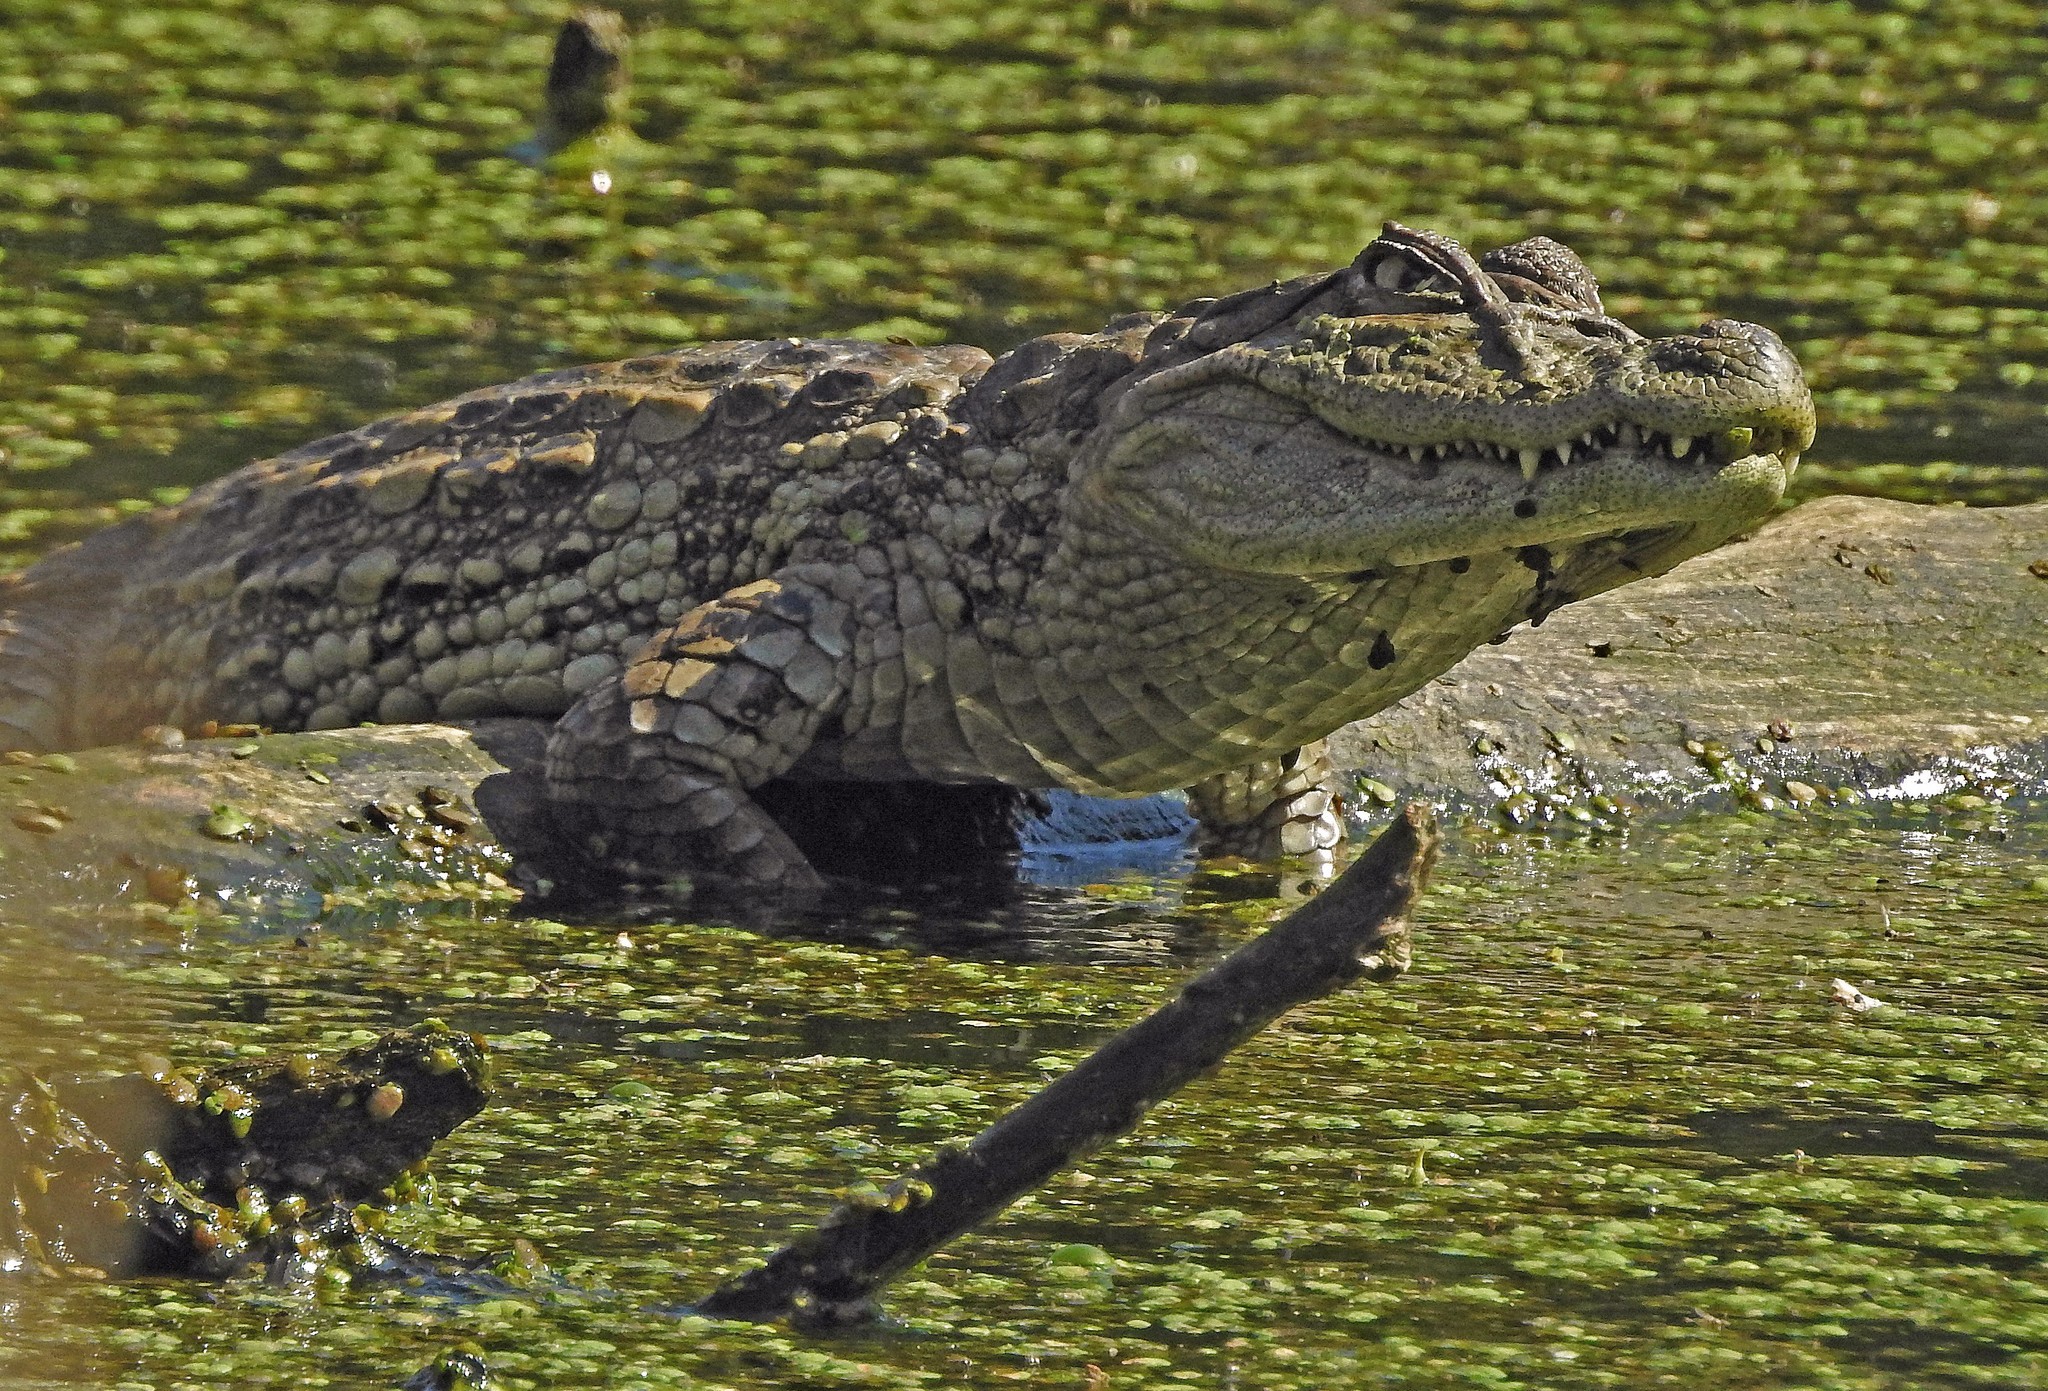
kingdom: Animalia
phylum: Chordata
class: Crocodylia
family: Alligatoridae
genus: Caiman
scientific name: Caiman latirostris
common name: Broad-snouted caiman
